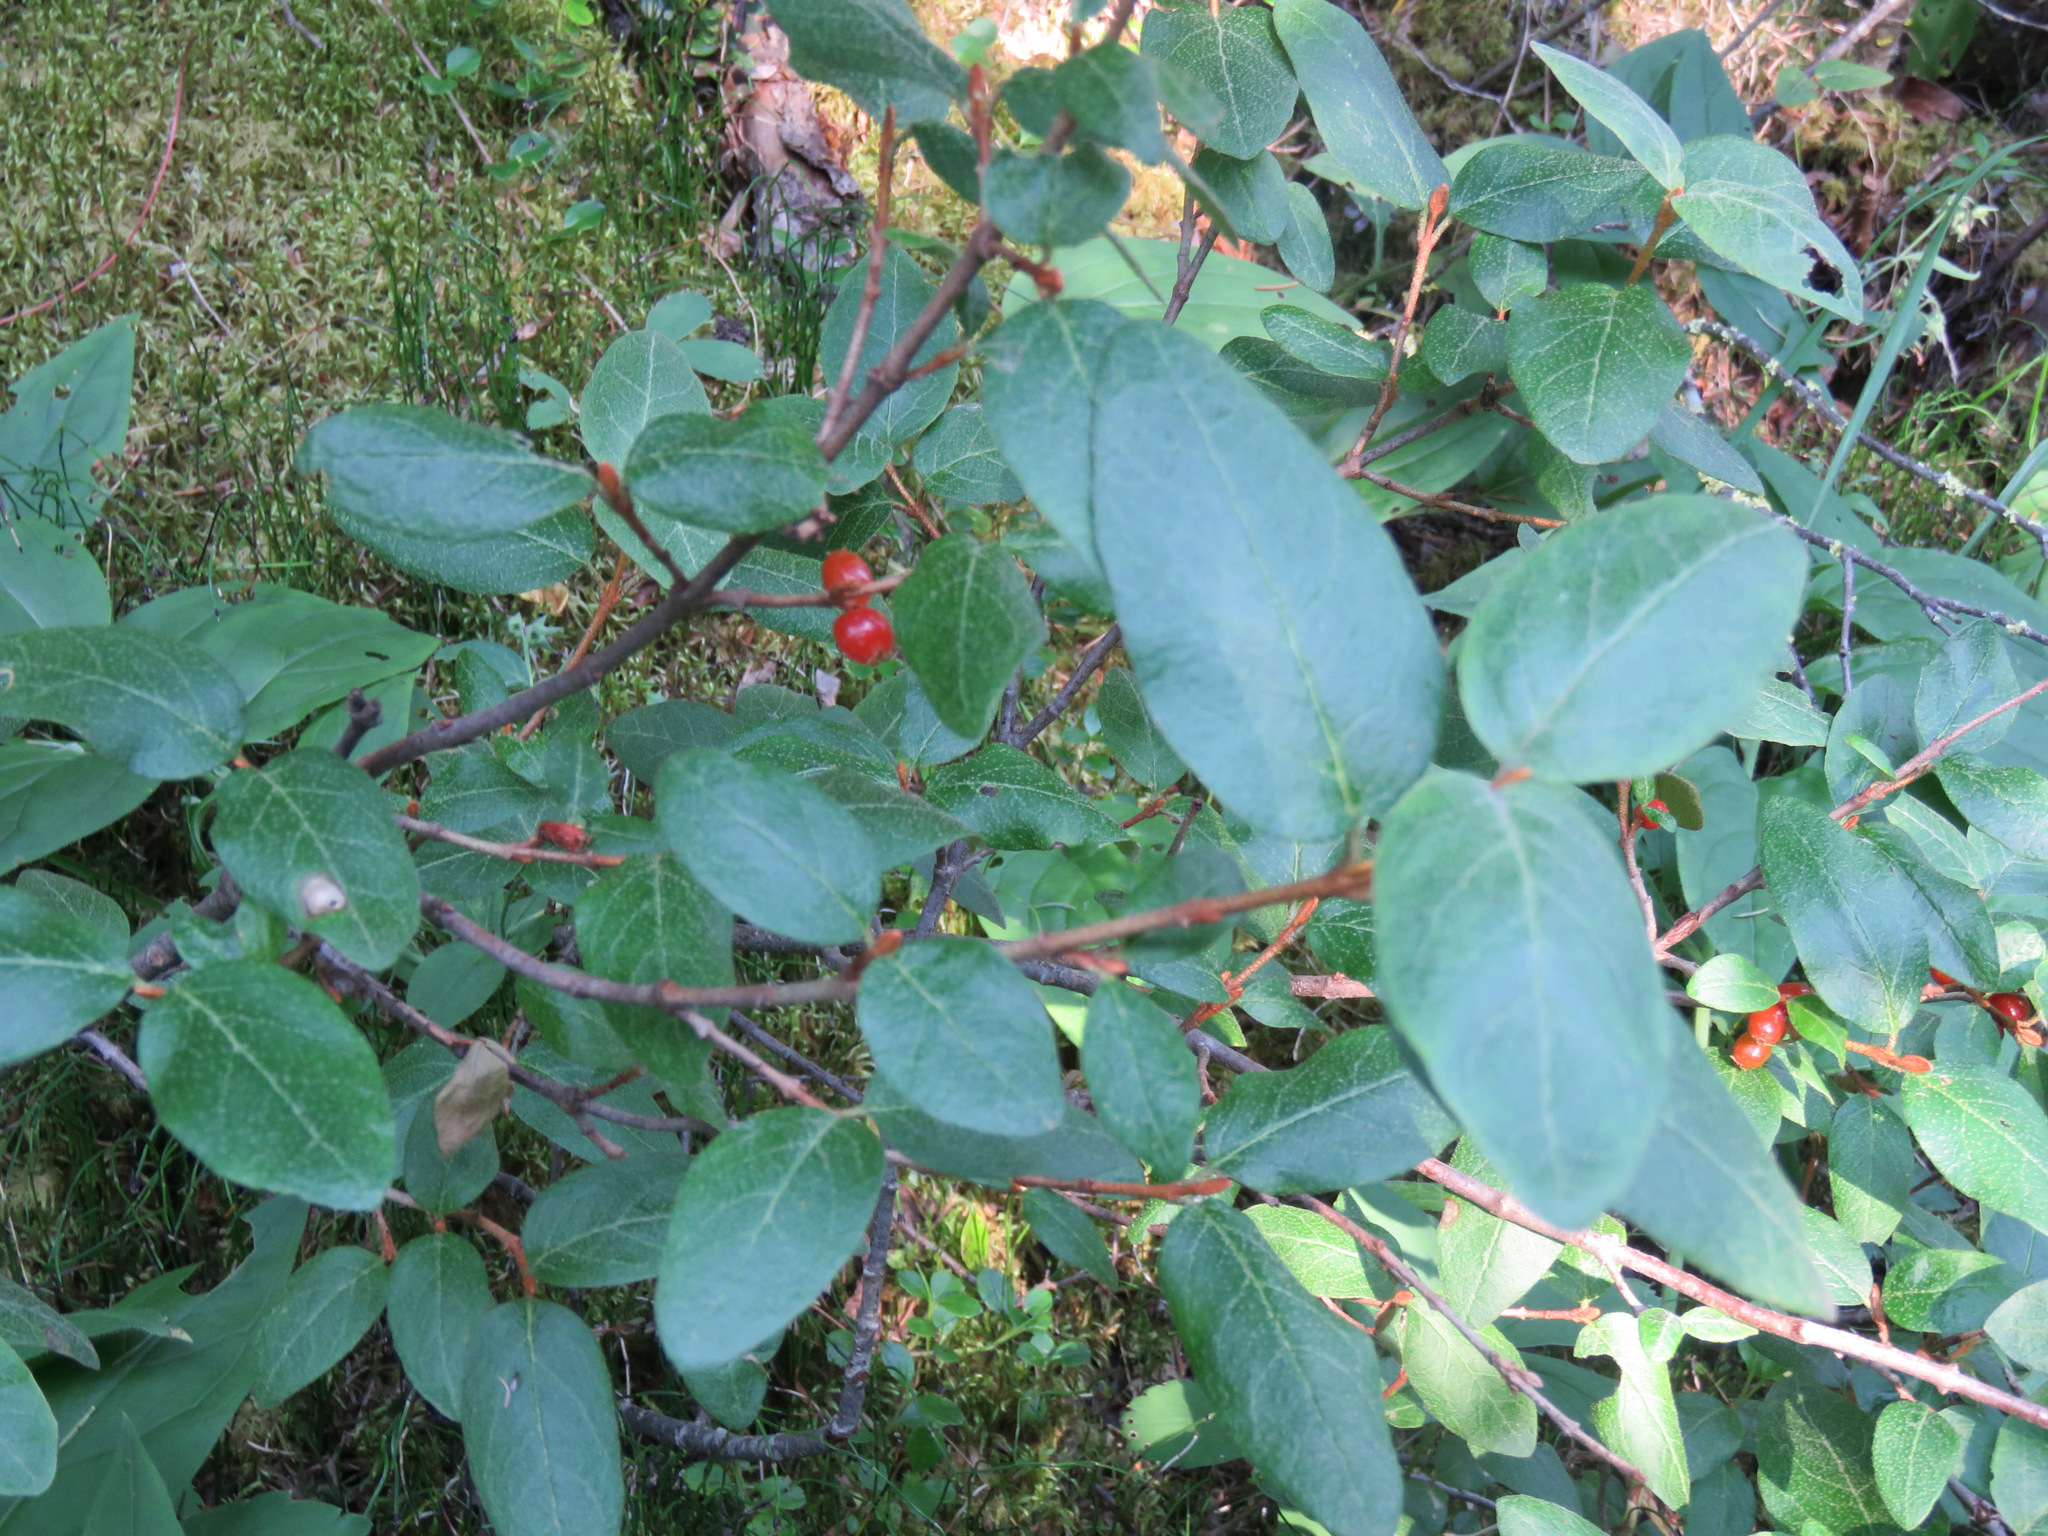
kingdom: Plantae
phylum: Tracheophyta
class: Magnoliopsida
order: Rosales
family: Elaeagnaceae
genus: Shepherdia
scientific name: Shepherdia canadensis
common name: Soapberry
